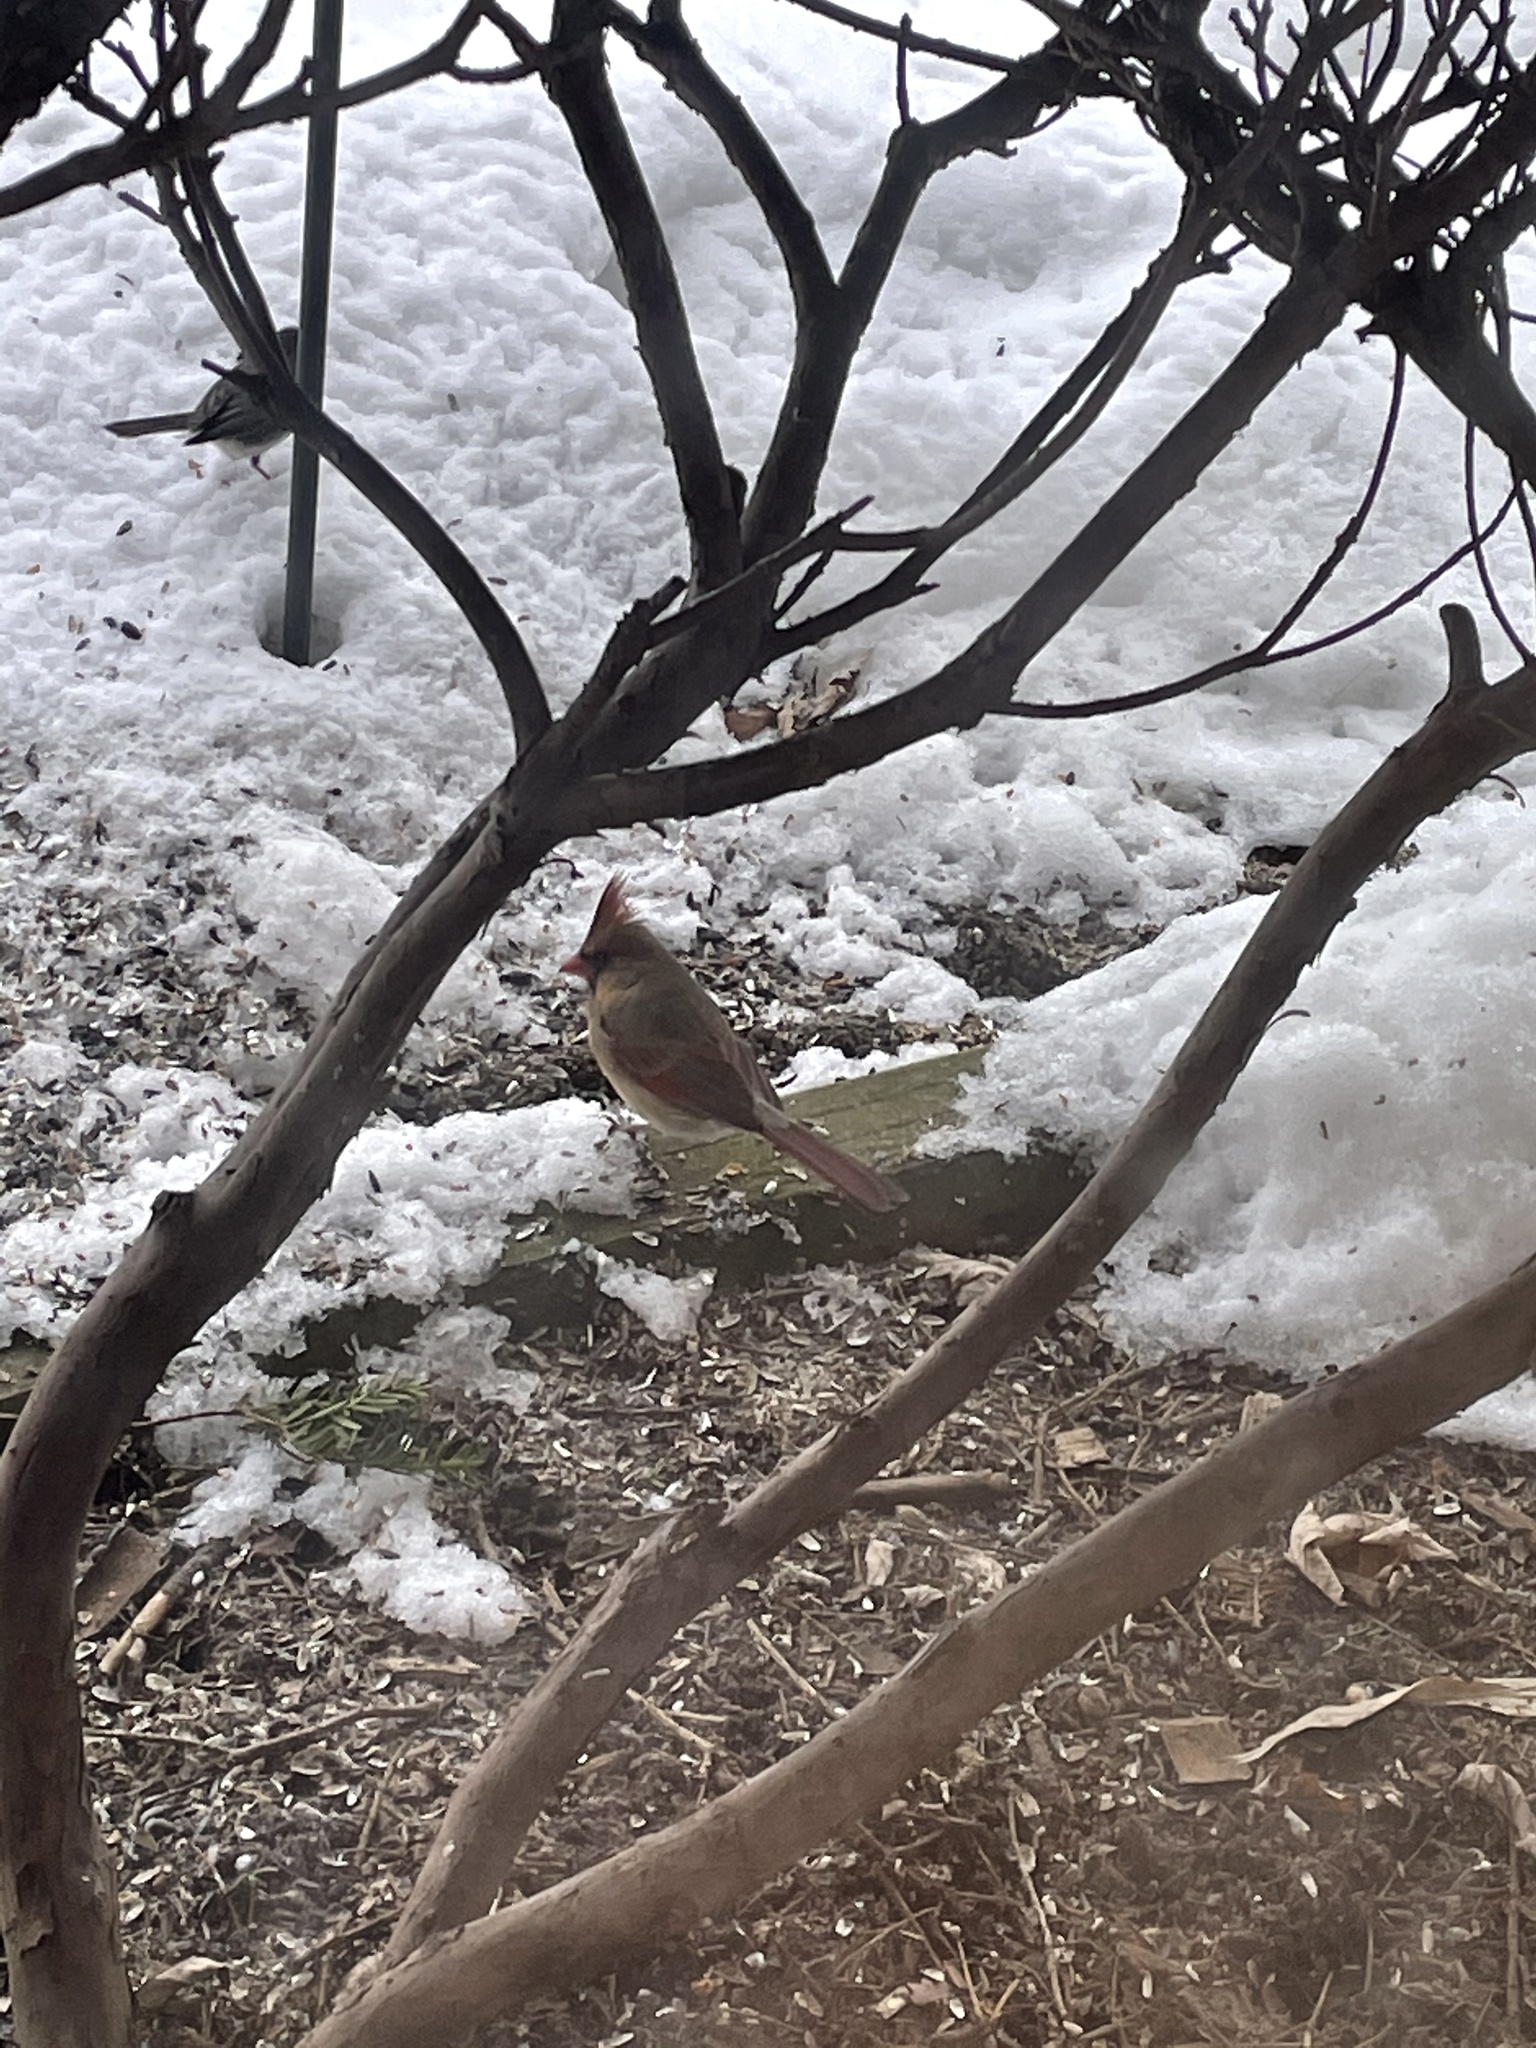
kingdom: Animalia
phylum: Chordata
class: Aves
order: Passeriformes
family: Cardinalidae
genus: Cardinalis
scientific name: Cardinalis cardinalis
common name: Northern cardinal
